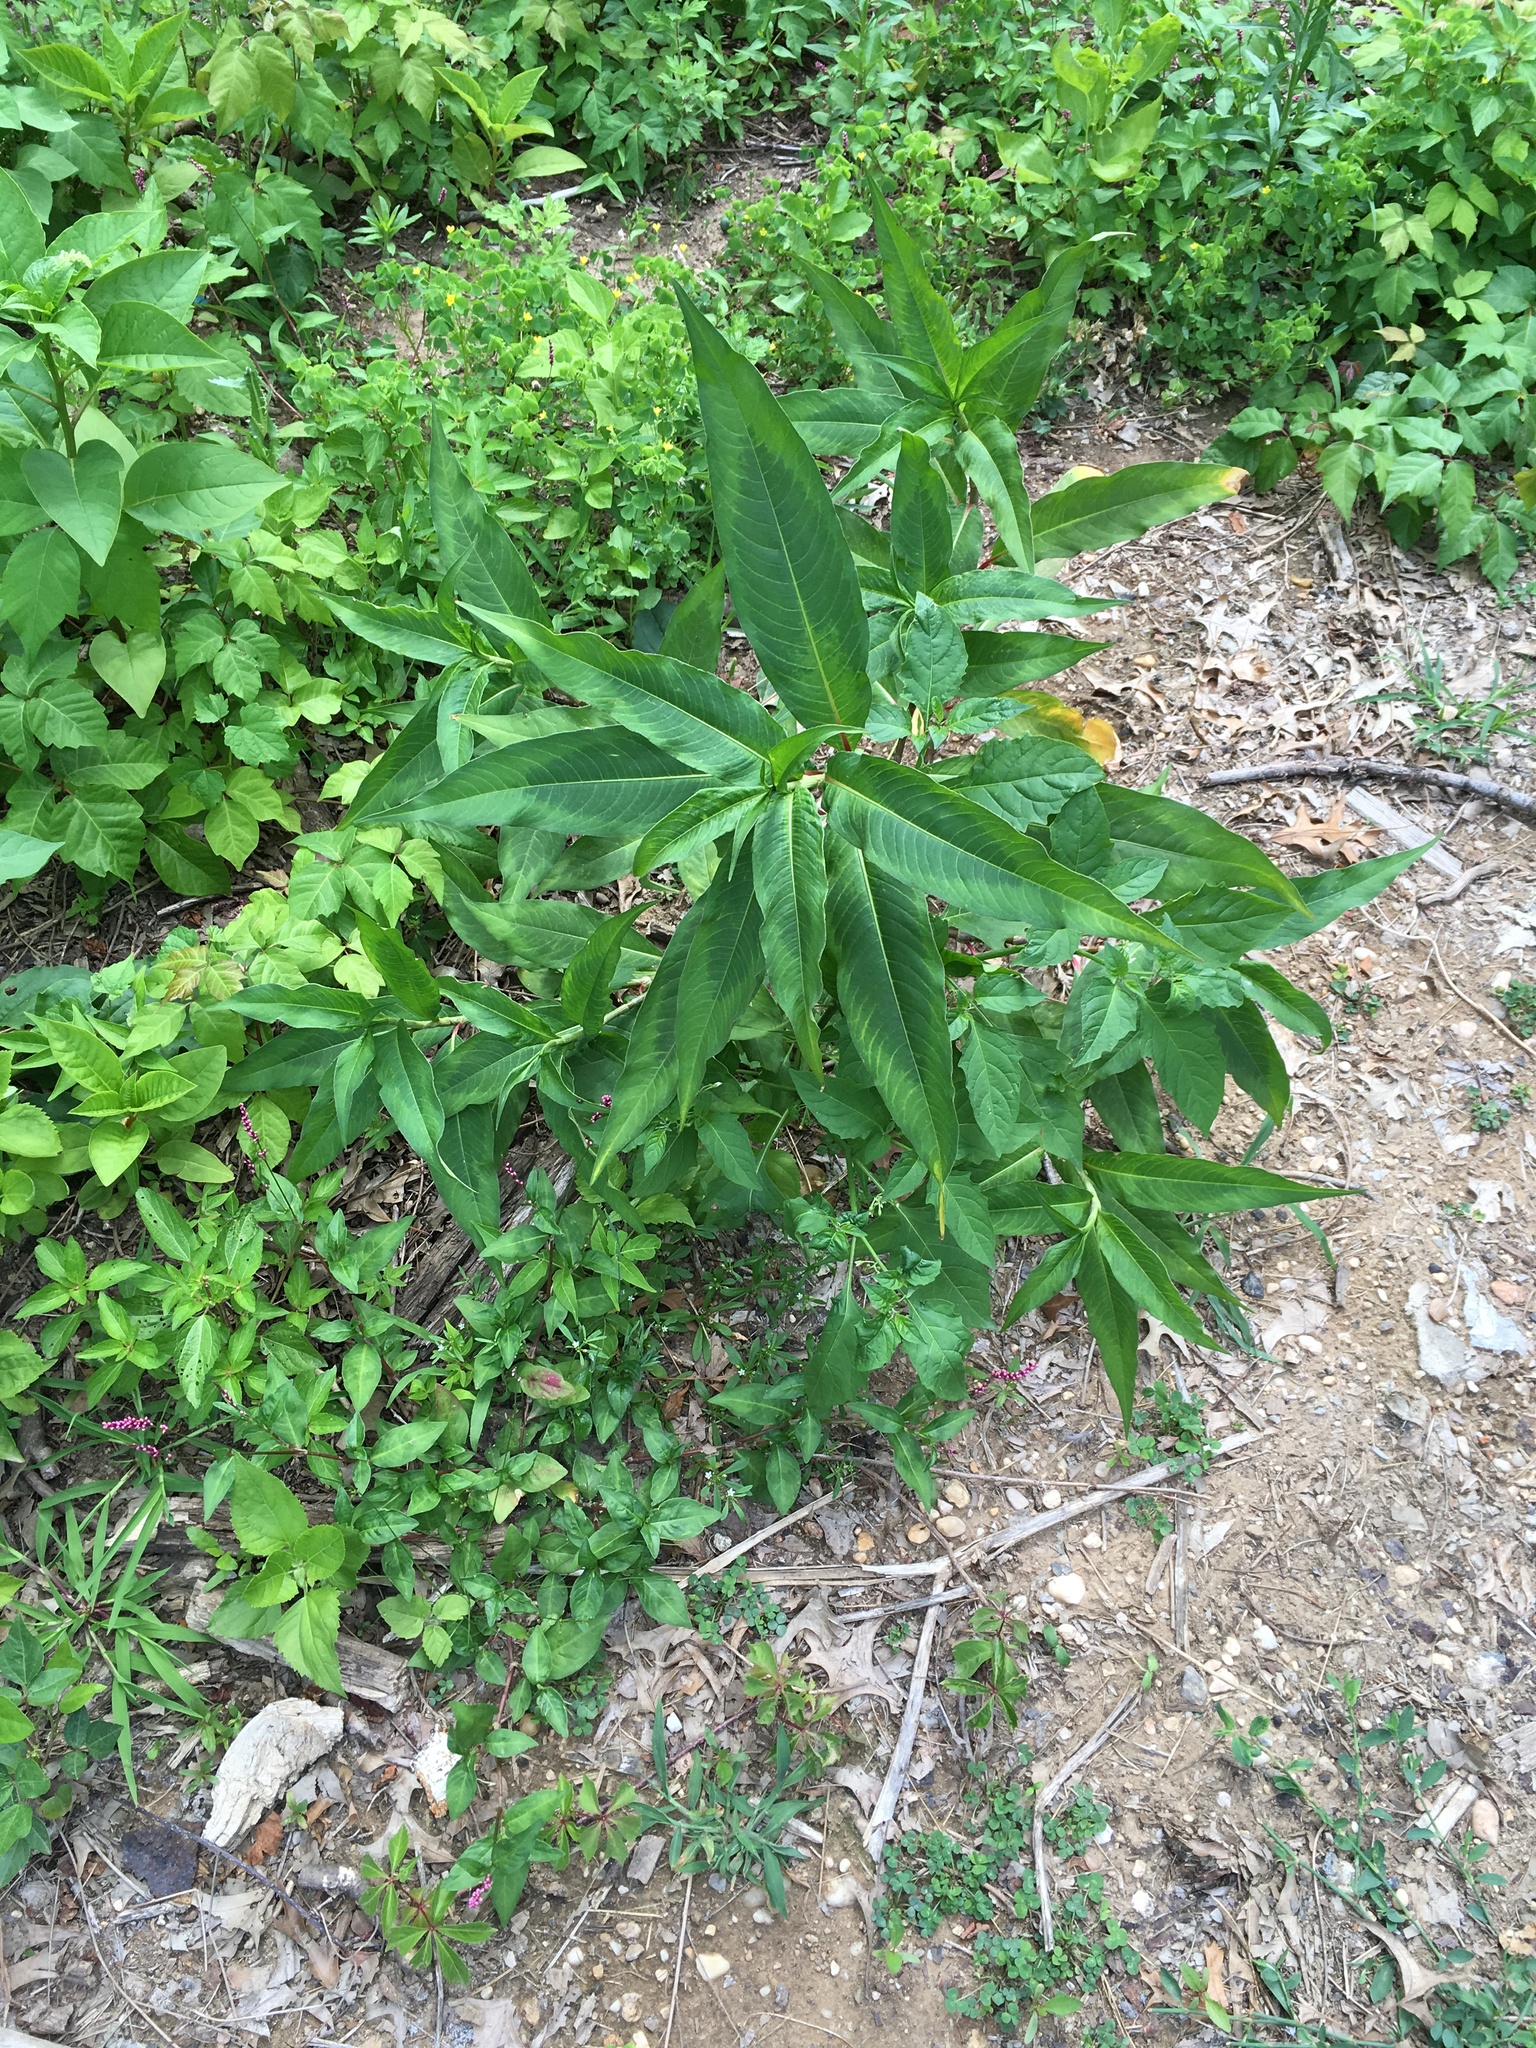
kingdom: Plantae
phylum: Tracheophyta
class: Magnoliopsida
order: Caryophyllales
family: Polygonaceae
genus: Persicaria
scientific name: Persicaria extremiorientalis
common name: Far-eastern smartweed
